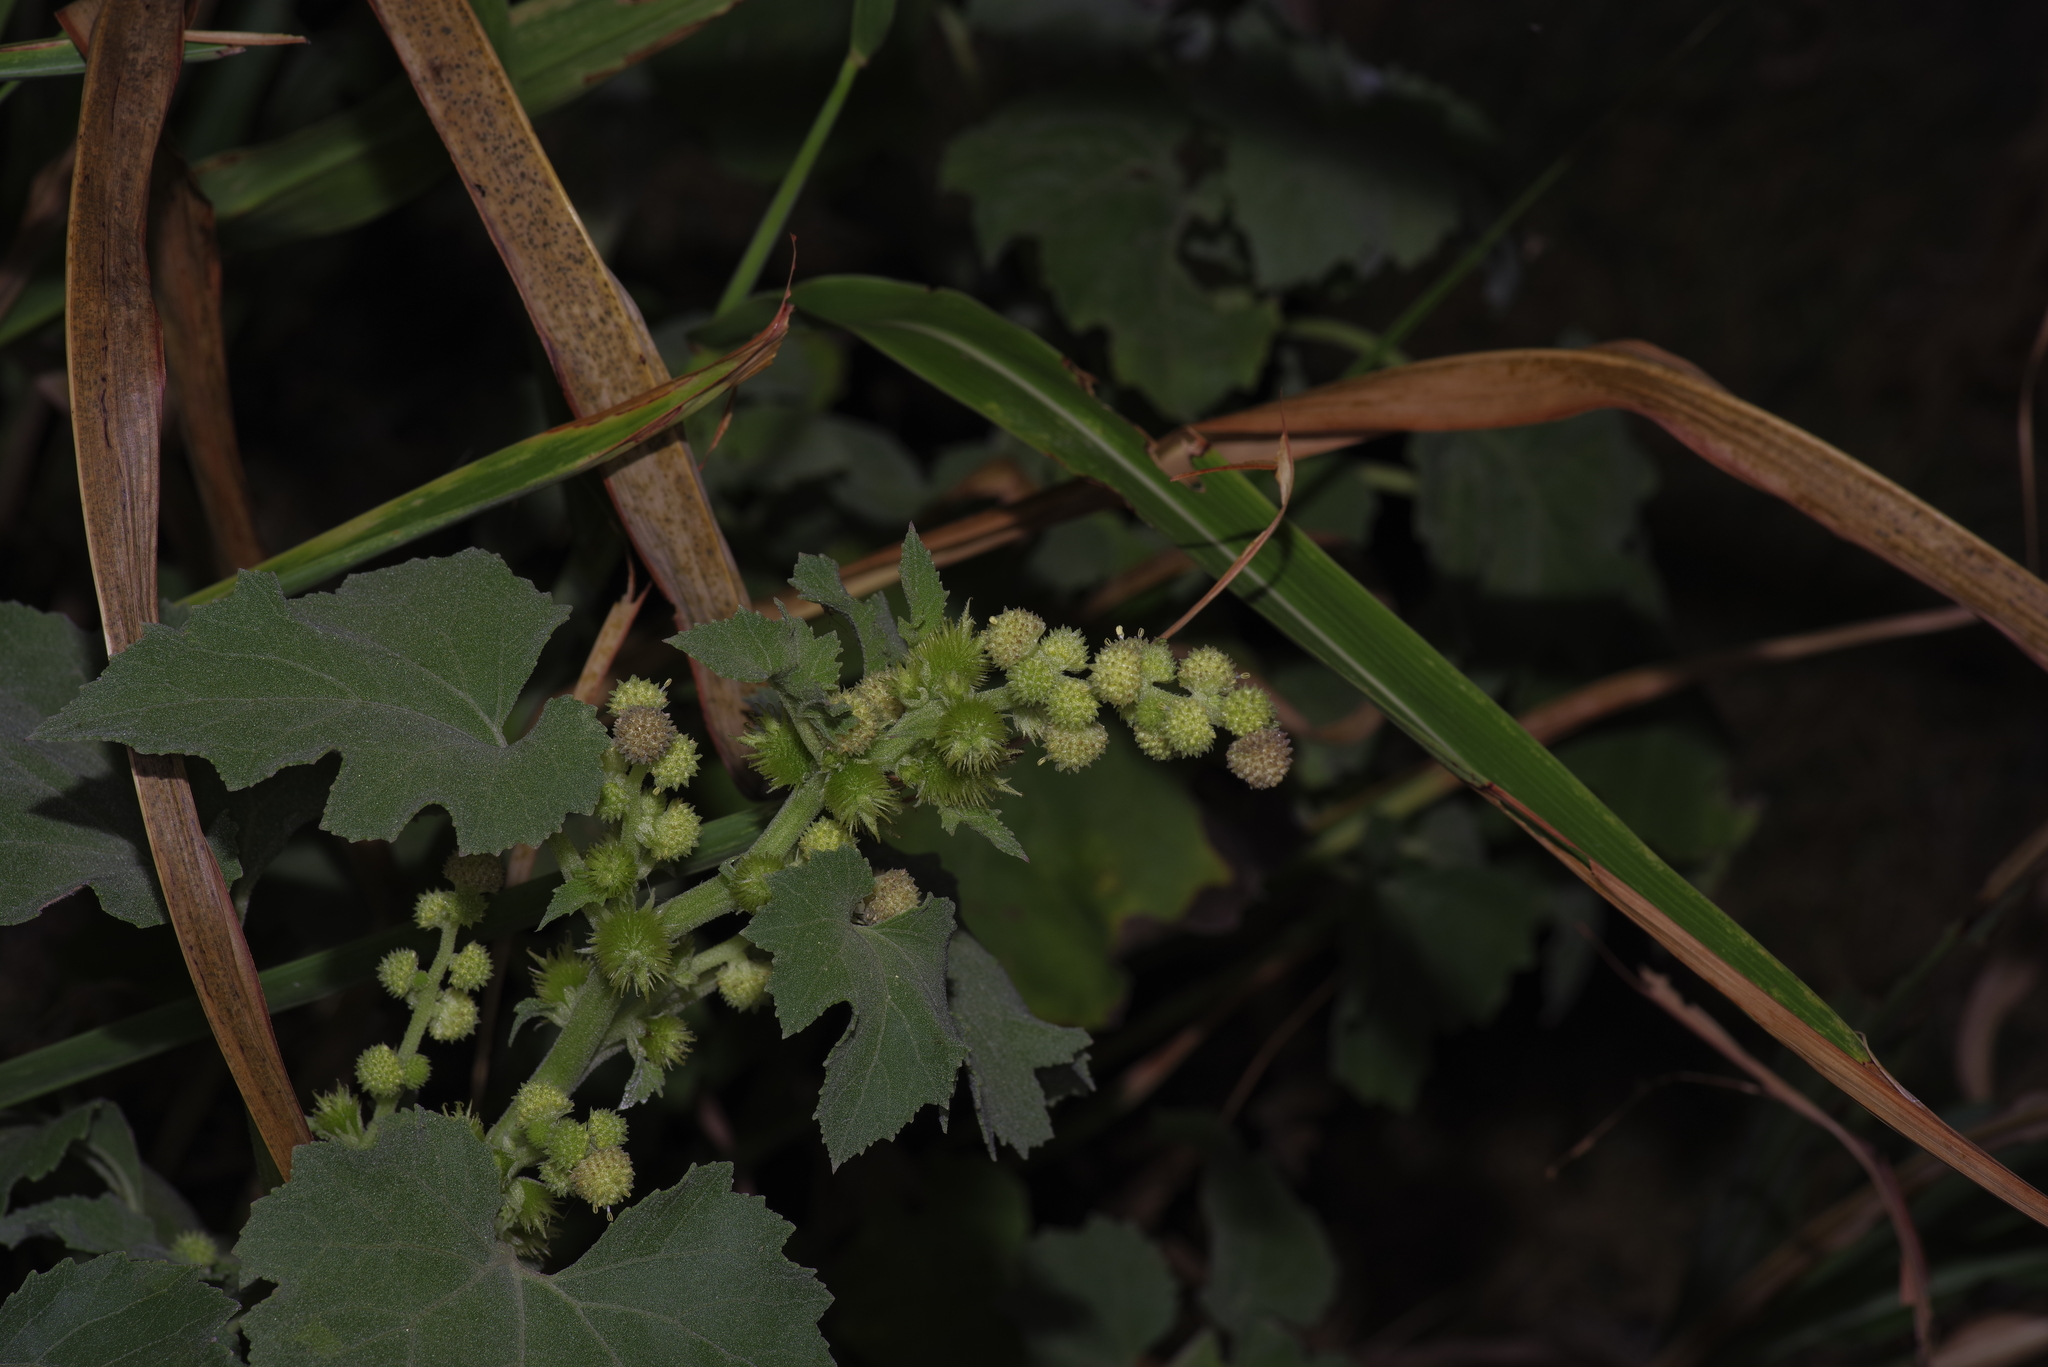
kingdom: Plantae
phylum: Tracheophyta
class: Magnoliopsida
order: Asterales
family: Asteraceae
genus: Xanthium
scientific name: Xanthium strumarium
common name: Rough cocklebur
